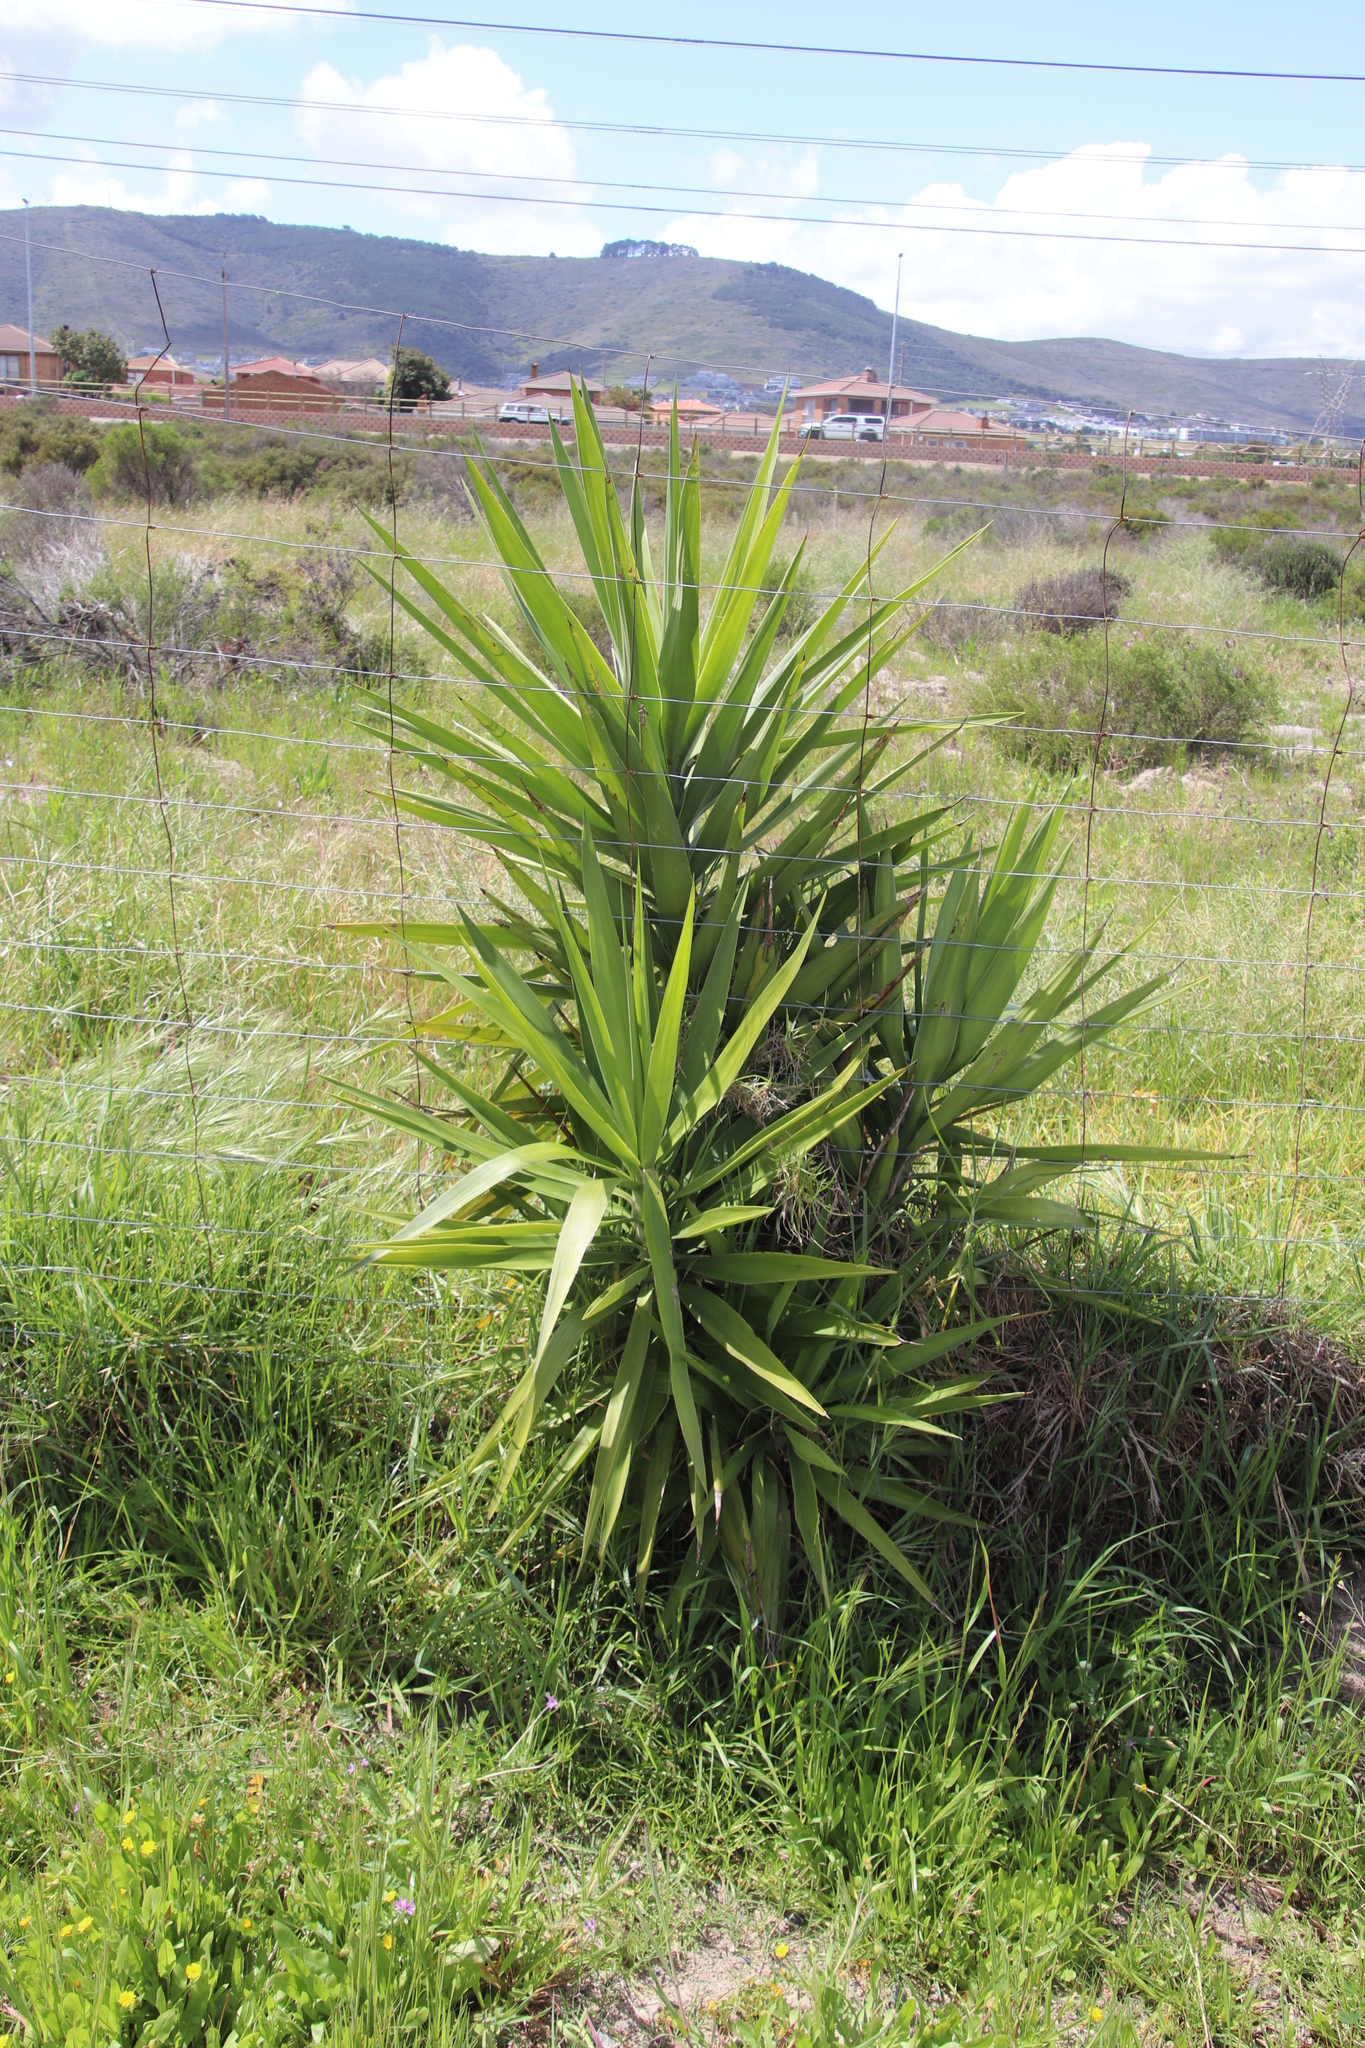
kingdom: Plantae
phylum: Tracheophyta
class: Liliopsida
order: Asparagales
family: Asparagaceae
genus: Yucca
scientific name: Yucca gigantea
